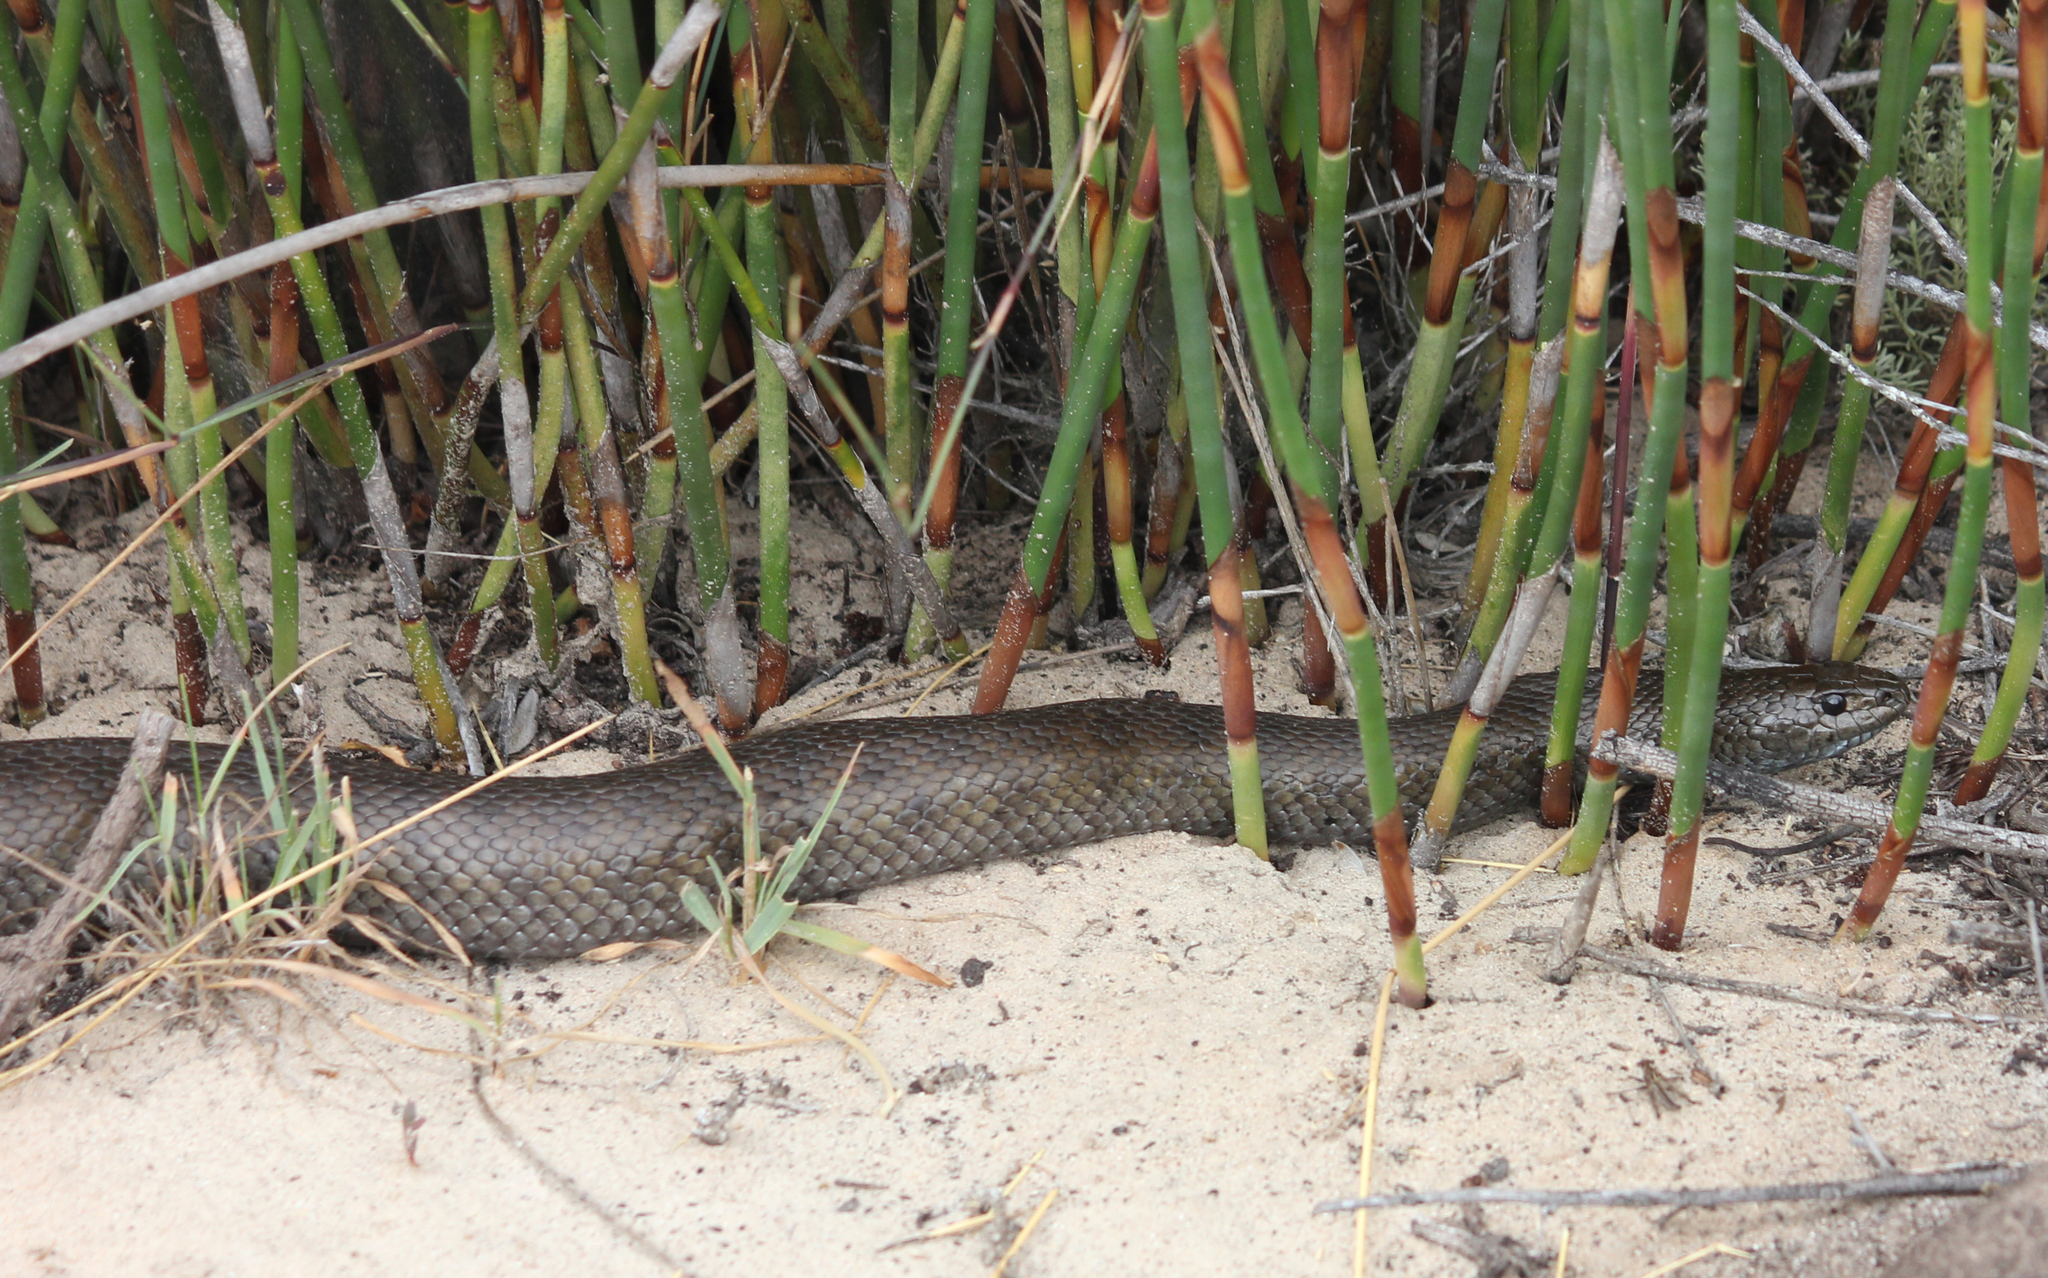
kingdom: Animalia
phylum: Chordata
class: Squamata
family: Pseudaspididae
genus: Pseudaspis
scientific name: Pseudaspis cana
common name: Mole snake
